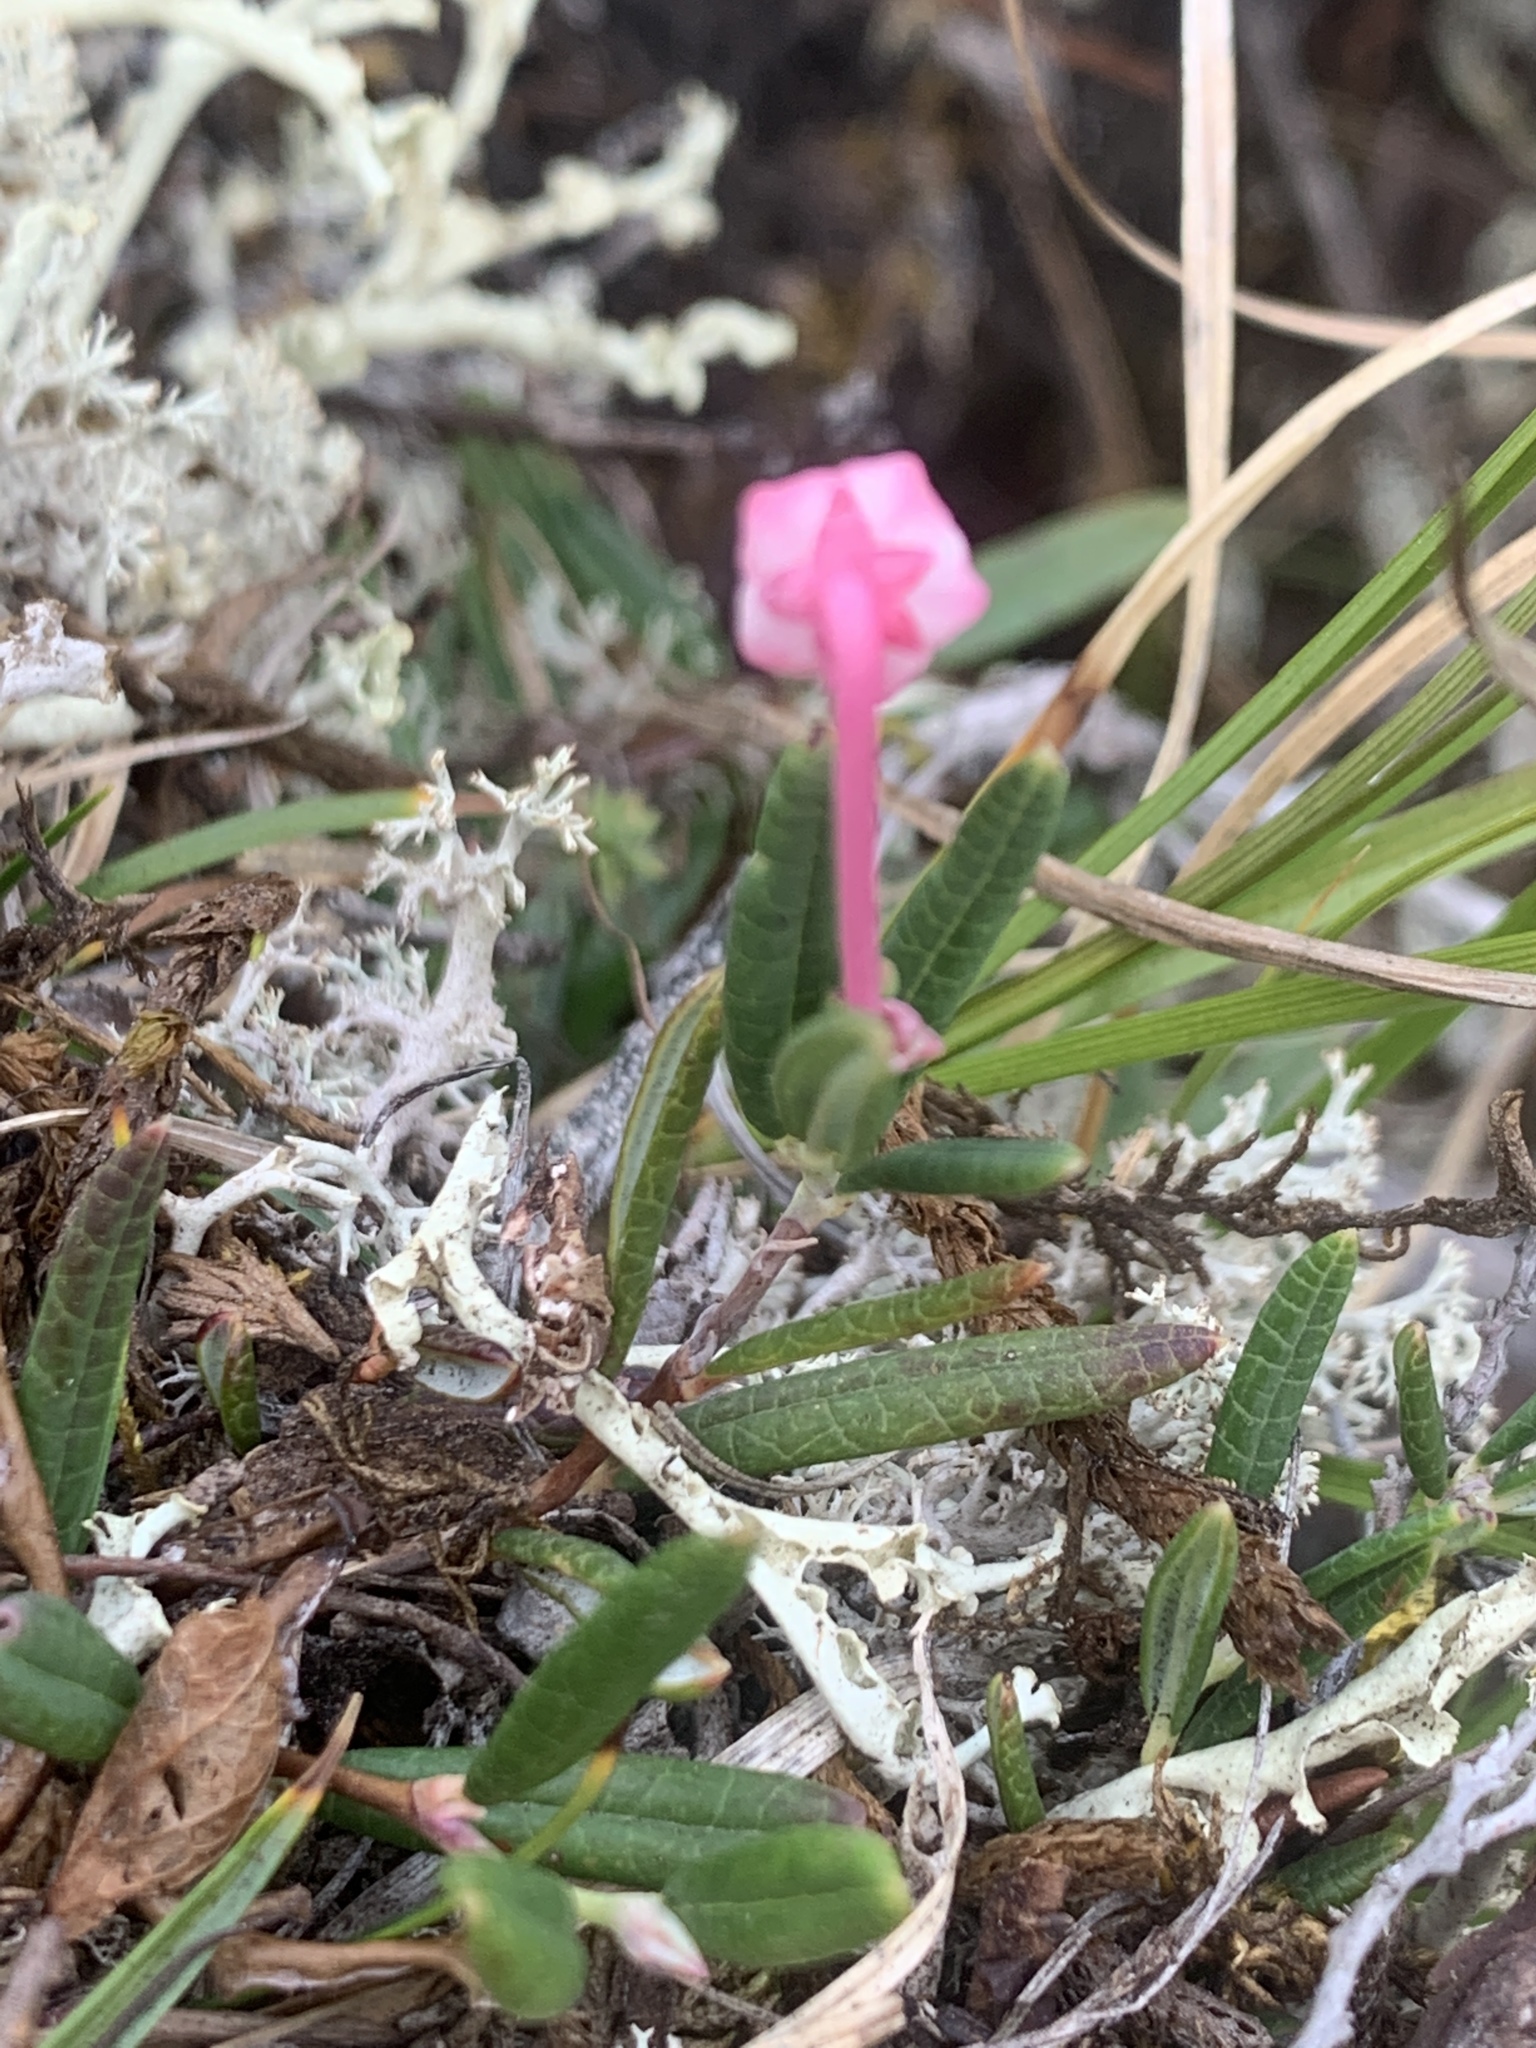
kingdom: Plantae
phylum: Tracheophyta
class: Magnoliopsida
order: Ericales
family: Ericaceae
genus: Andromeda
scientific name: Andromeda polifolia
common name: Bog-rosemary
